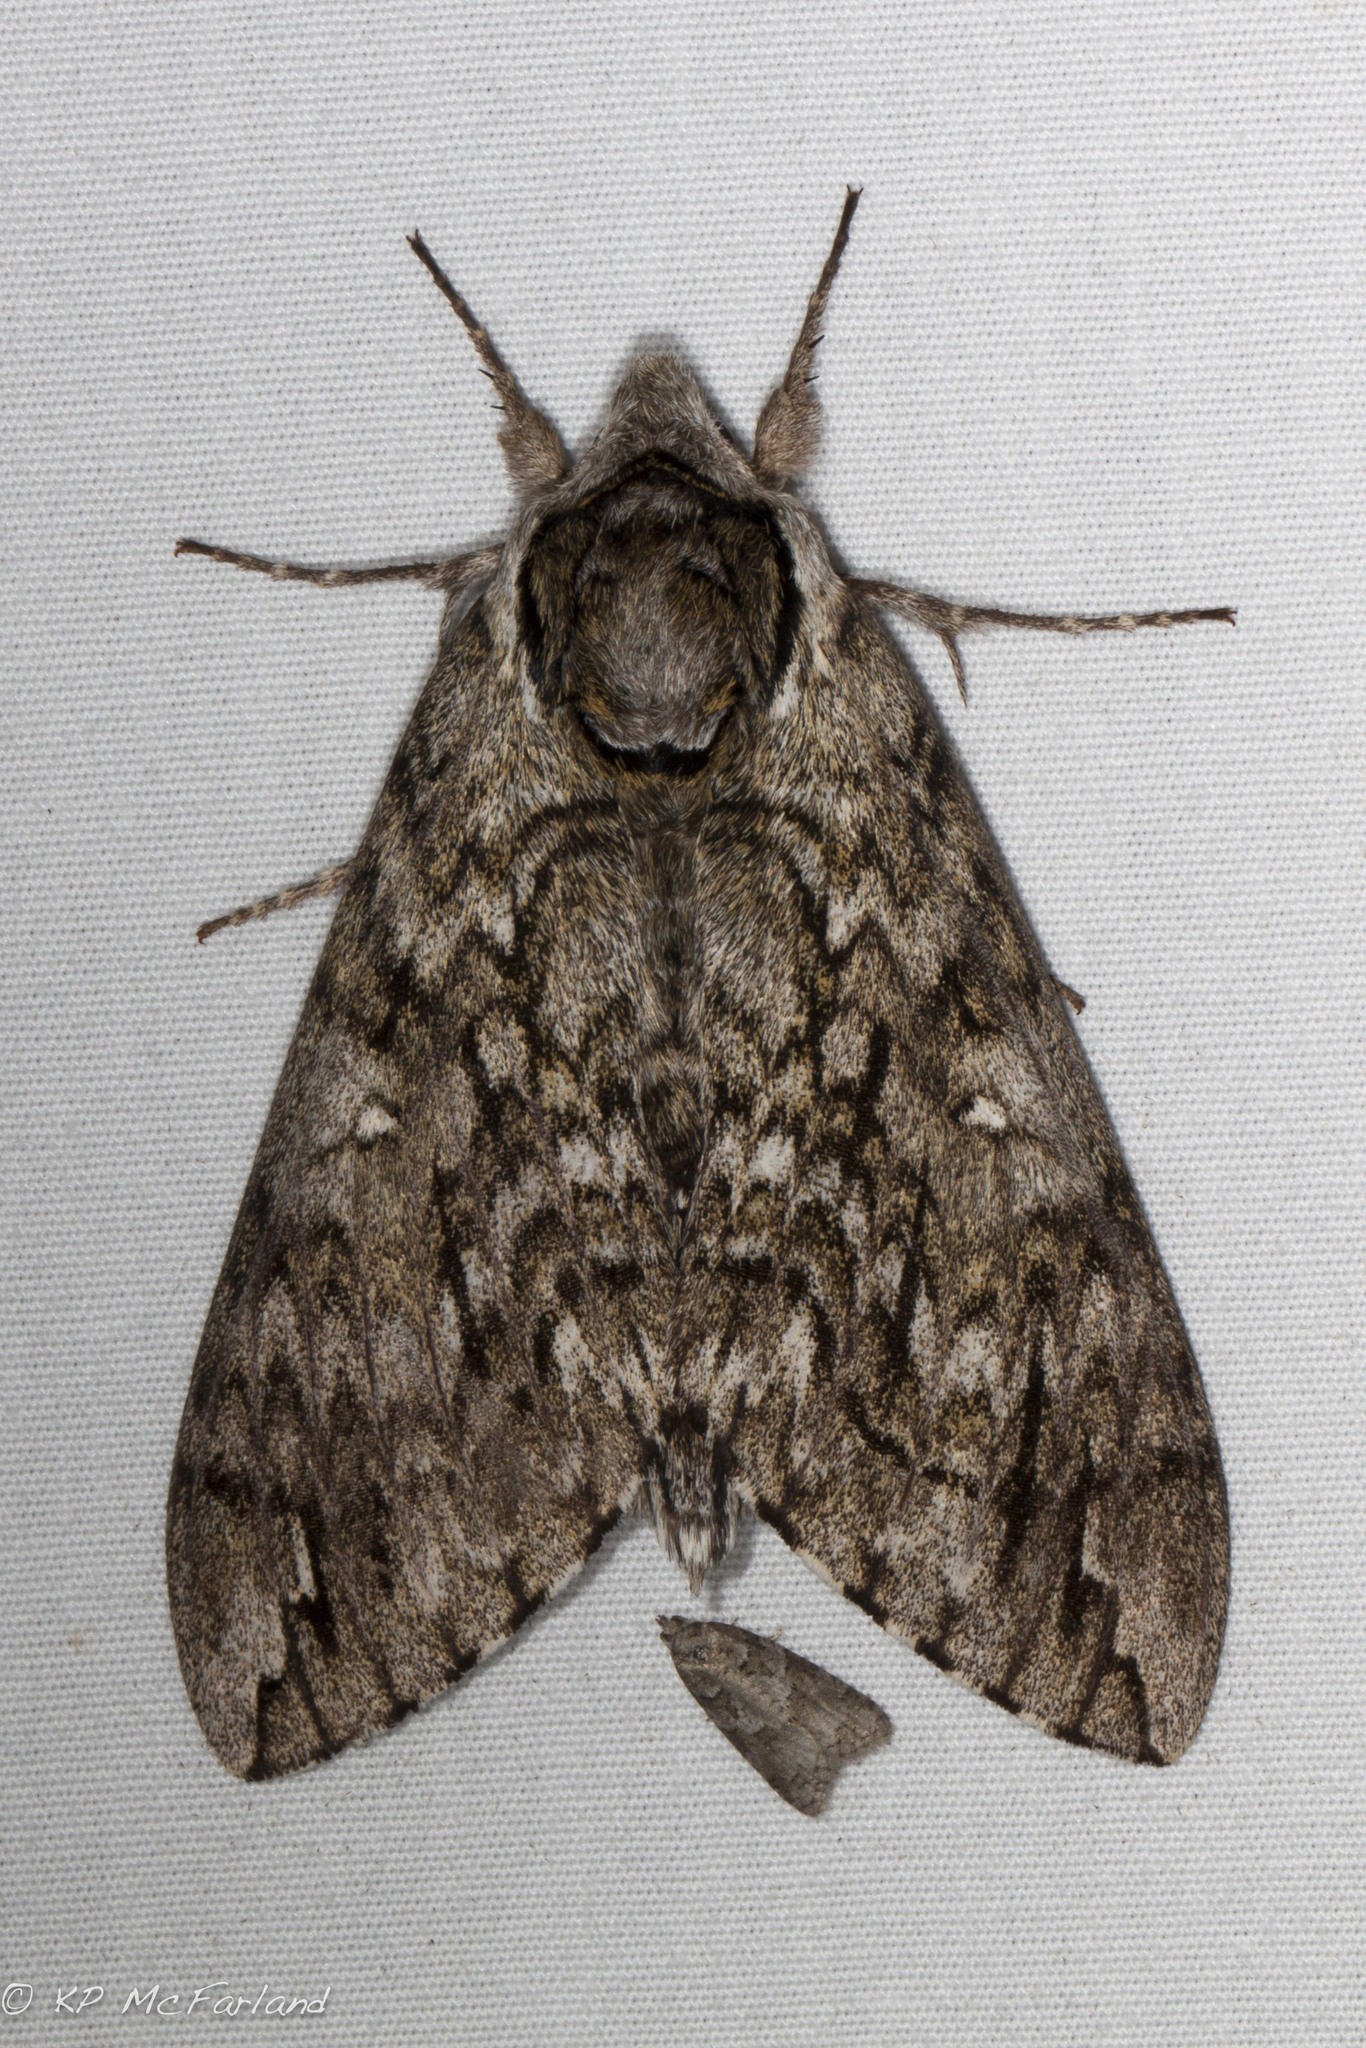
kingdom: Animalia
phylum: Arthropoda
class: Insecta
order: Lepidoptera
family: Sphingidae
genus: Ceratomia
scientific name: Ceratomia undulosa
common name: Waved sphinx
